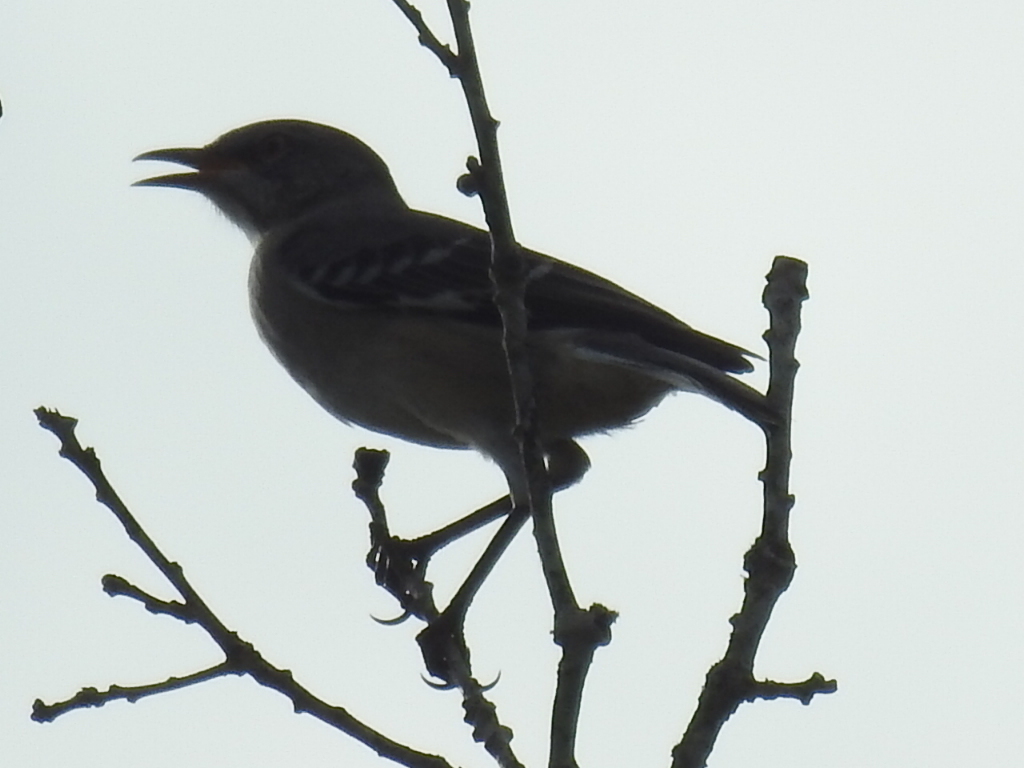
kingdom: Animalia
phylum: Chordata
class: Aves
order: Passeriformes
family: Mimidae
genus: Mimus
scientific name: Mimus polyglottos
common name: Northern mockingbird
